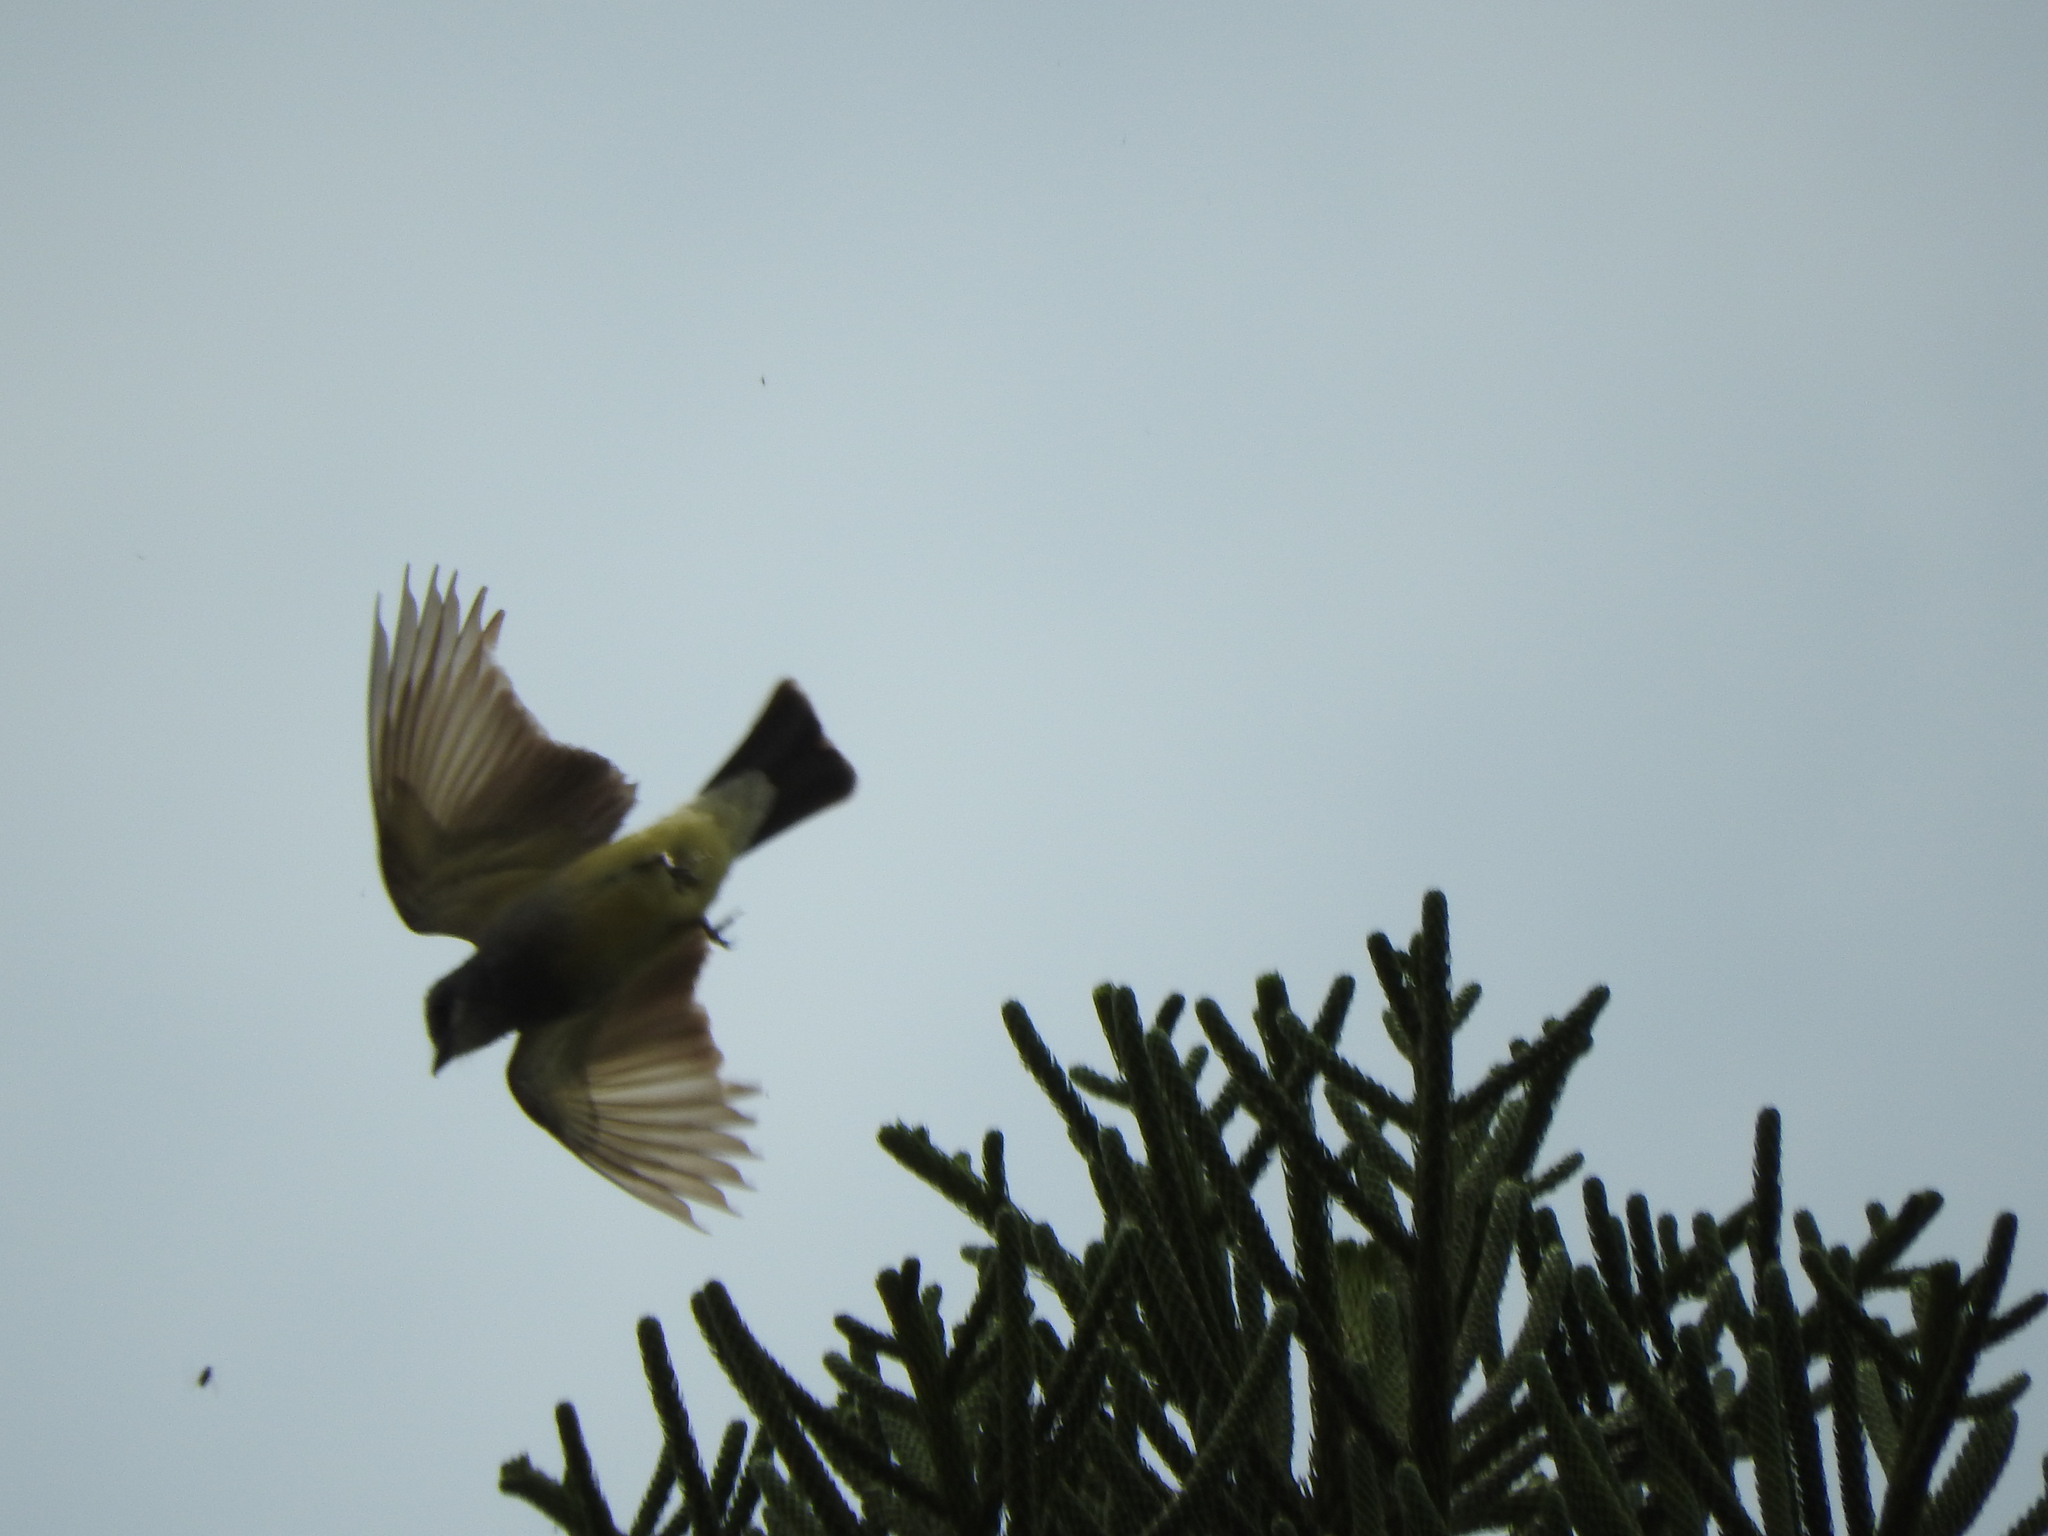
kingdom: Animalia
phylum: Chordata
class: Aves
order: Passeriformes
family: Tyrannidae
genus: Tyrannus
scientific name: Tyrannus vociferans
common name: Cassin's kingbird
